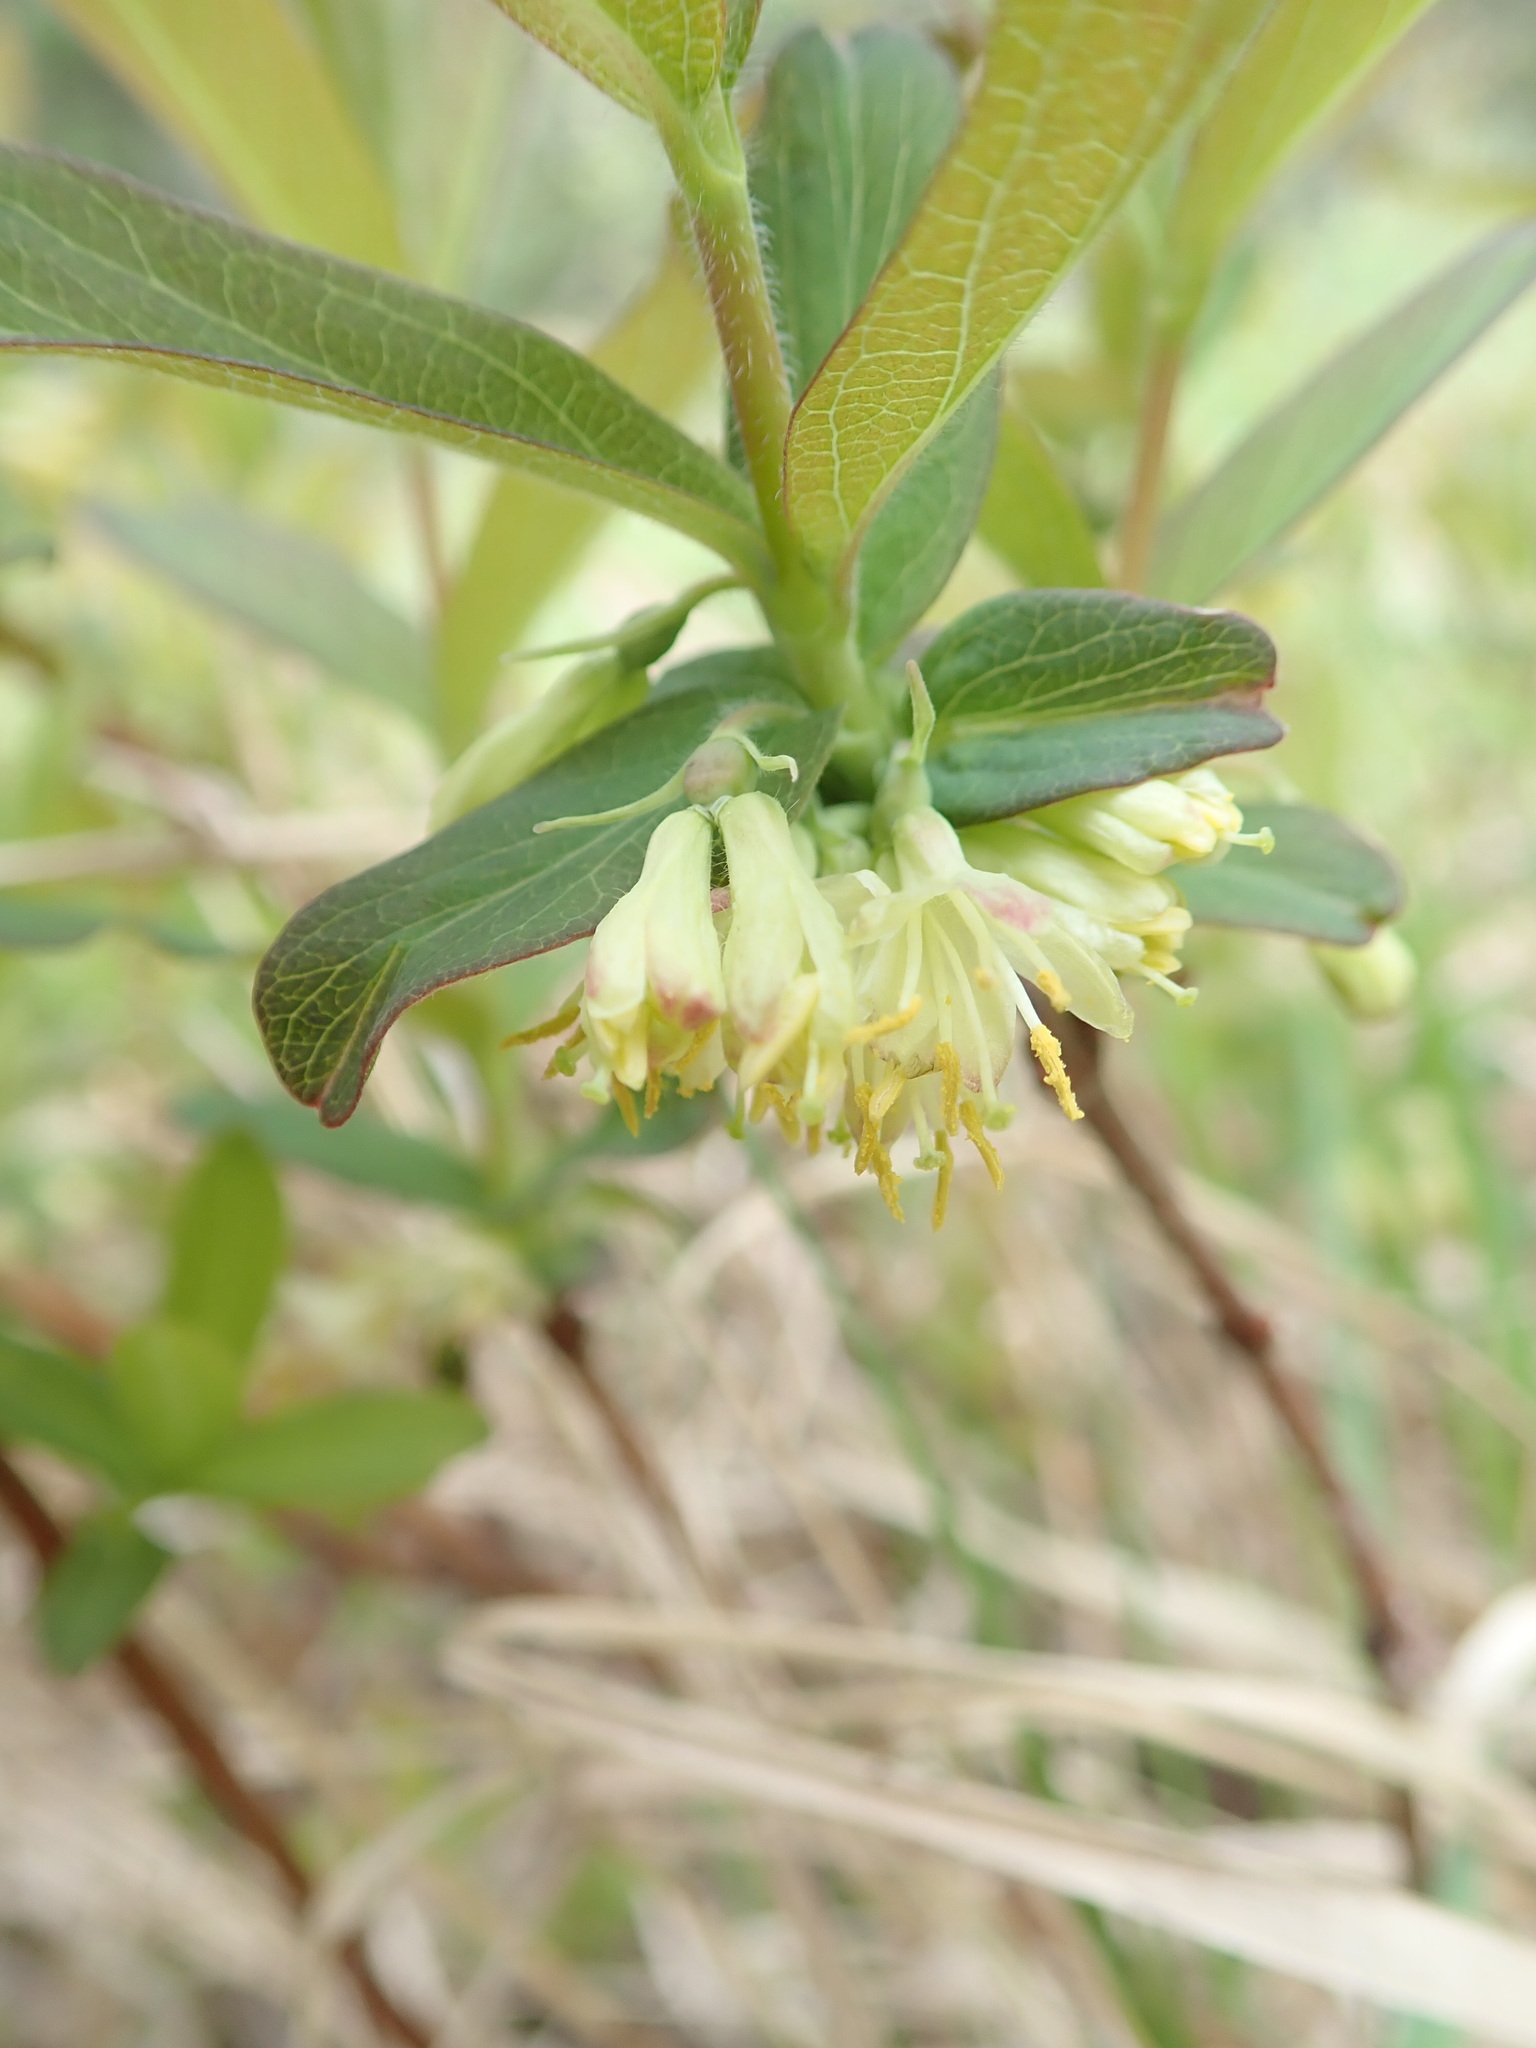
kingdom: Plantae
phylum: Tracheophyta
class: Magnoliopsida
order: Dipsacales
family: Caprifoliaceae
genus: Lonicera
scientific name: Lonicera villosa
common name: Mountain fly-honeysuckle
